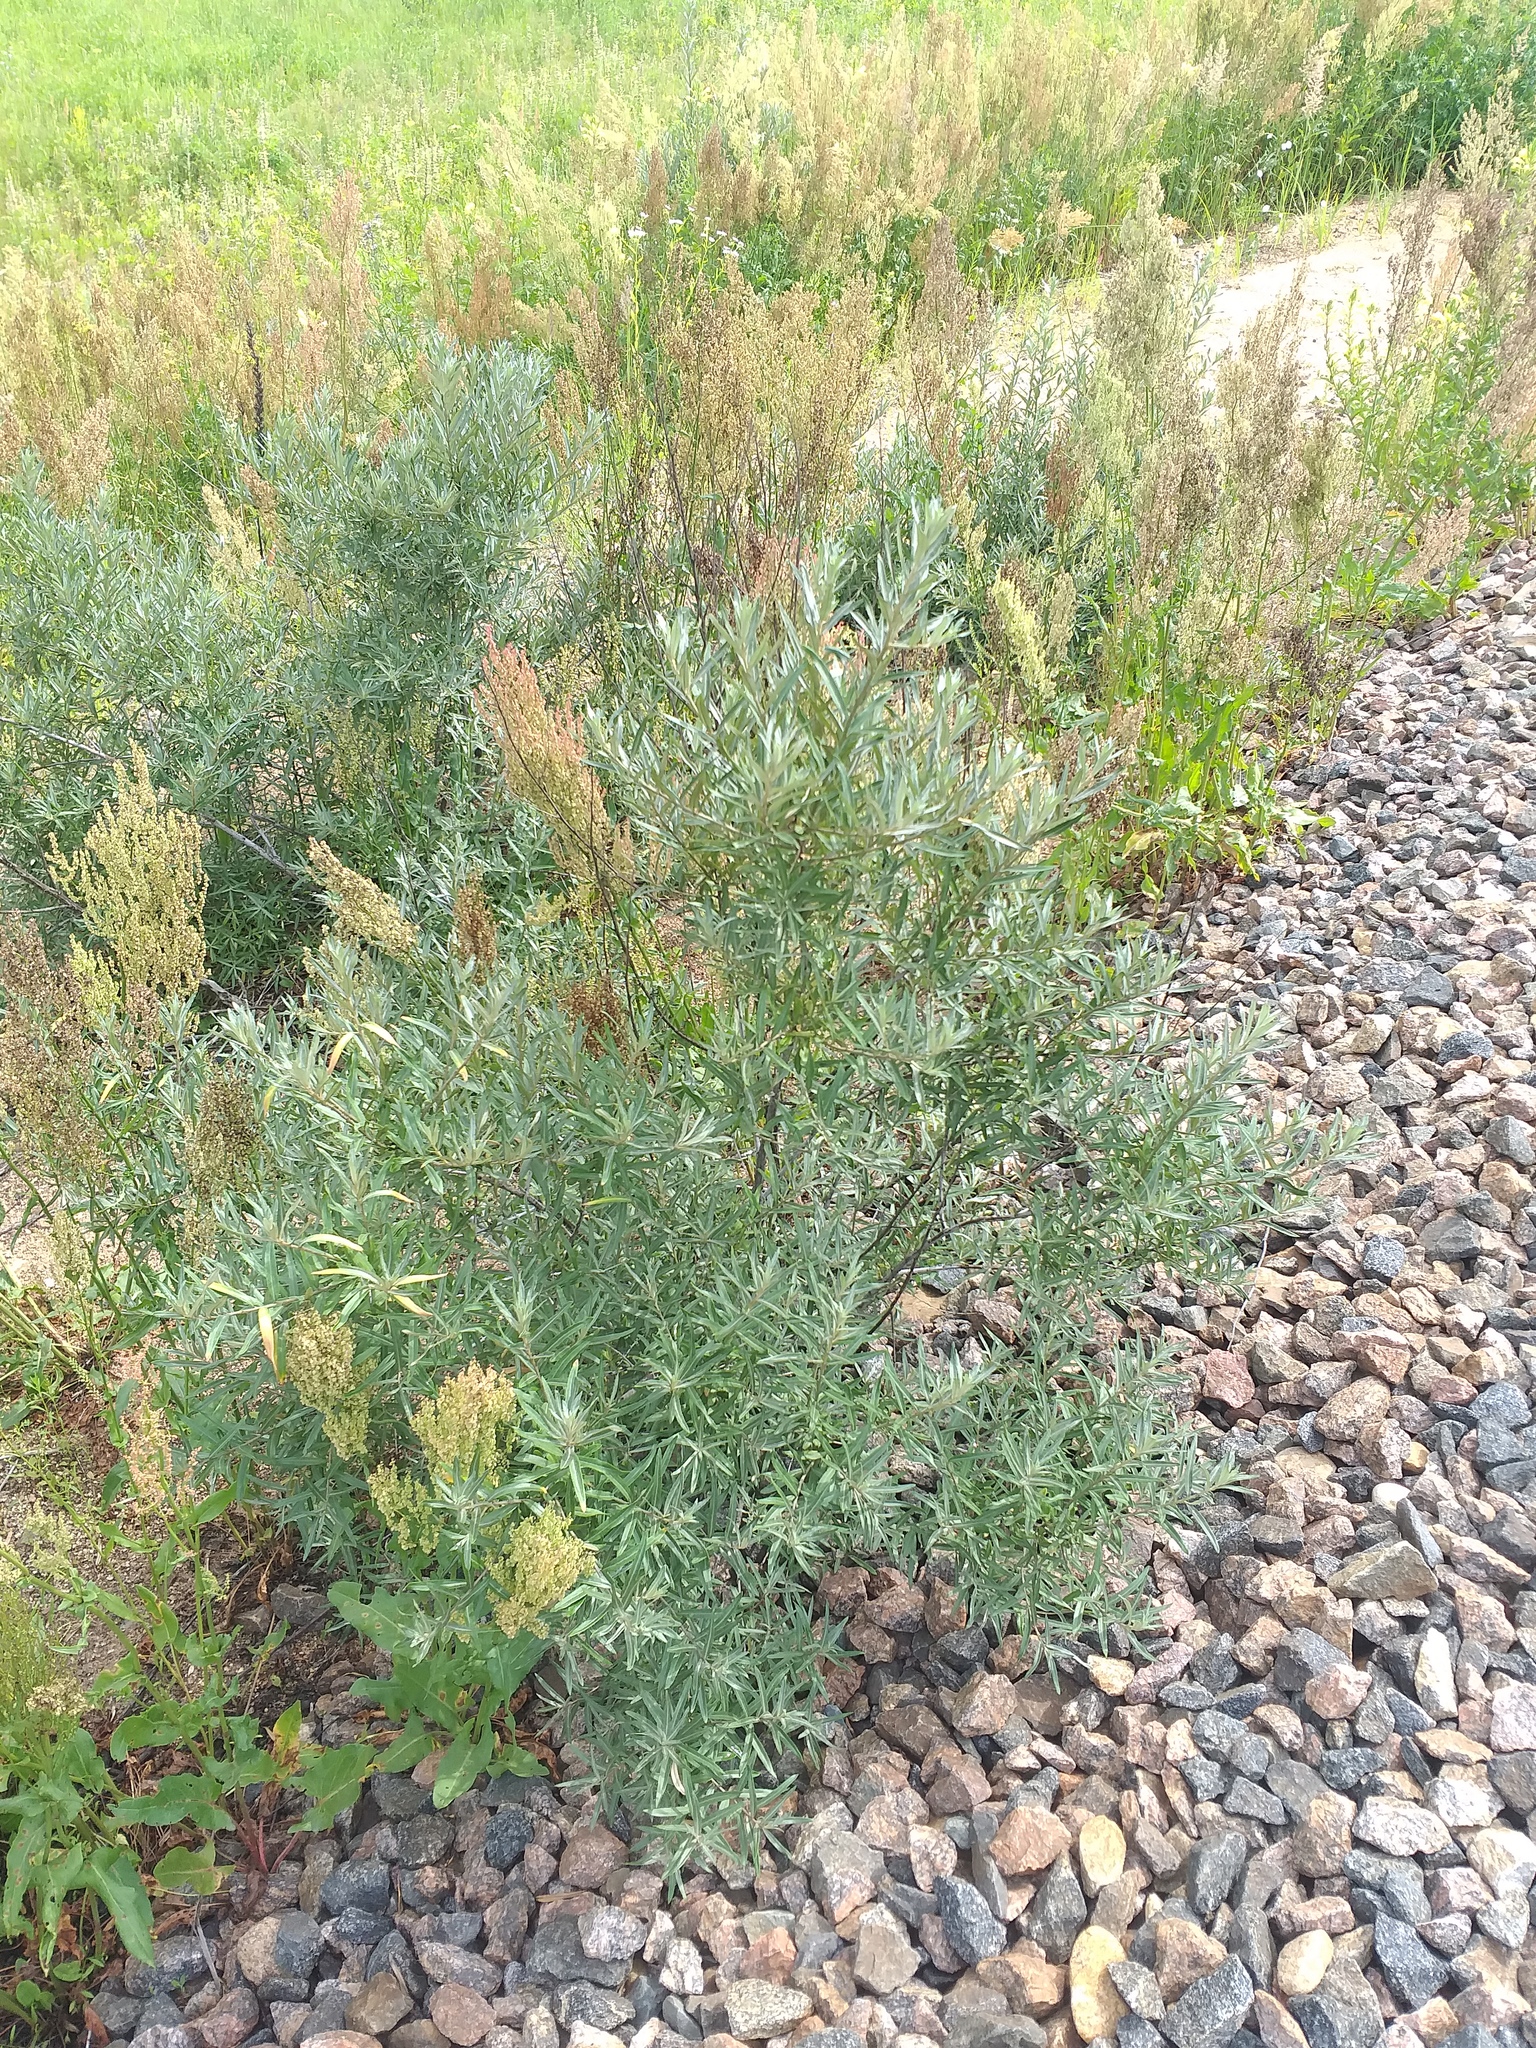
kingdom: Plantae
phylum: Tracheophyta
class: Magnoliopsida
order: Rosales
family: Elaeagnaceae
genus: Hippophae
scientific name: Hippophae rhamnoides
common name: Sea-buckthorn
